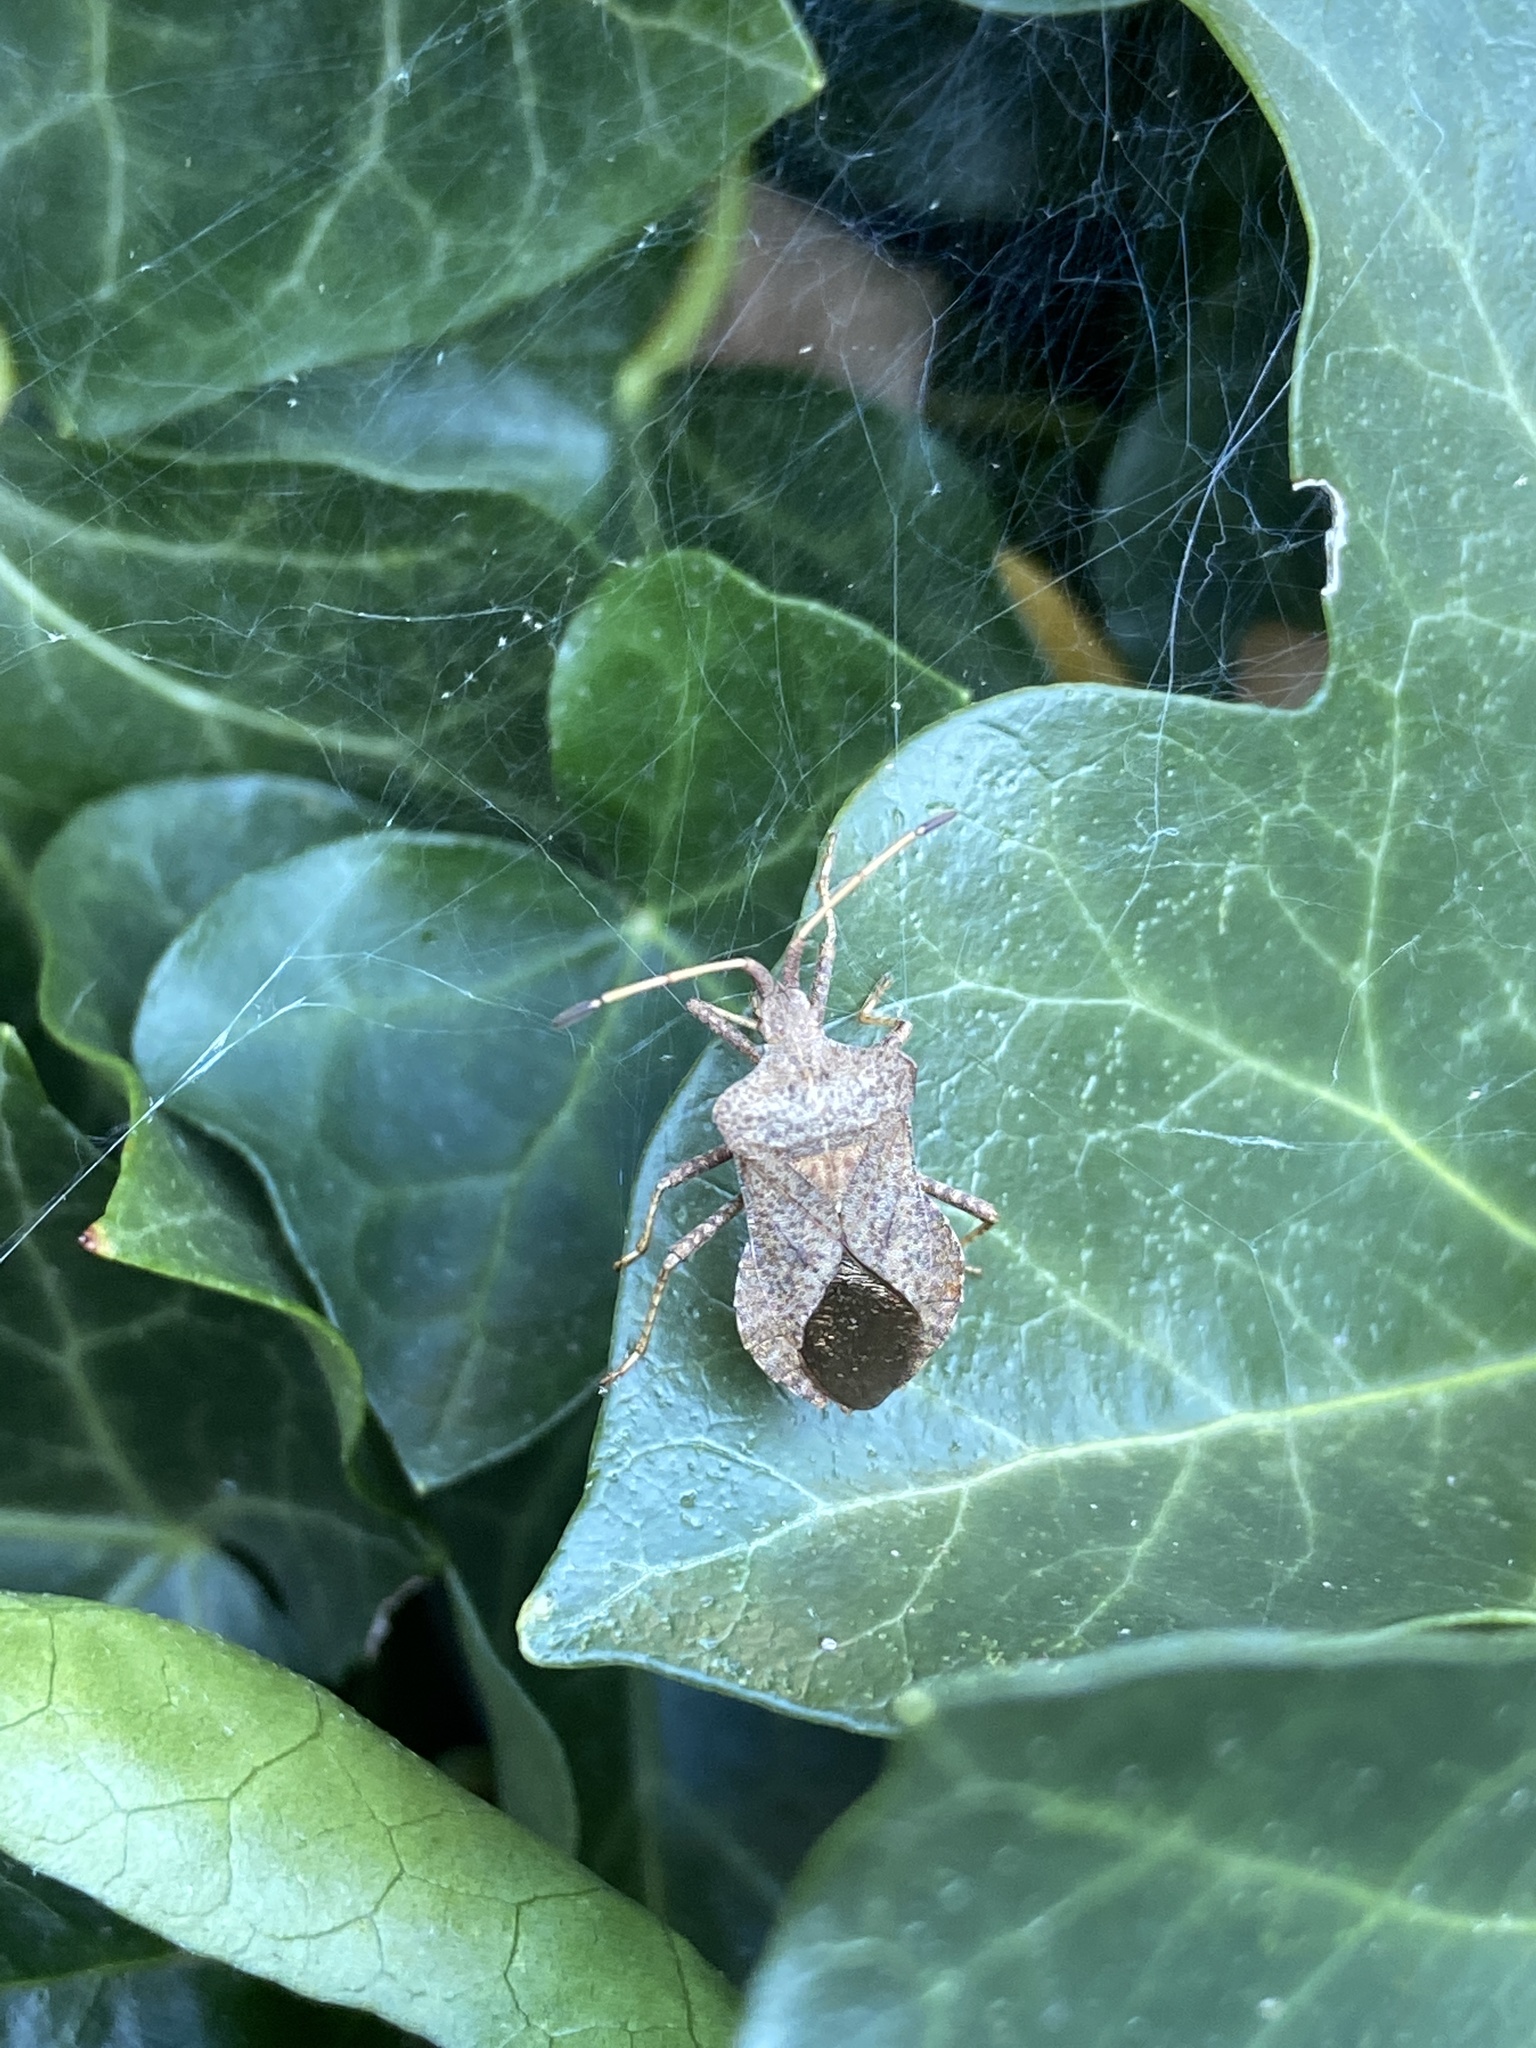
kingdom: Animalia
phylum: Arthropoda
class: Insecta
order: Hemiptera
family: Coreidae
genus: Coreus
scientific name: Coreus marginatus
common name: Dock bug
